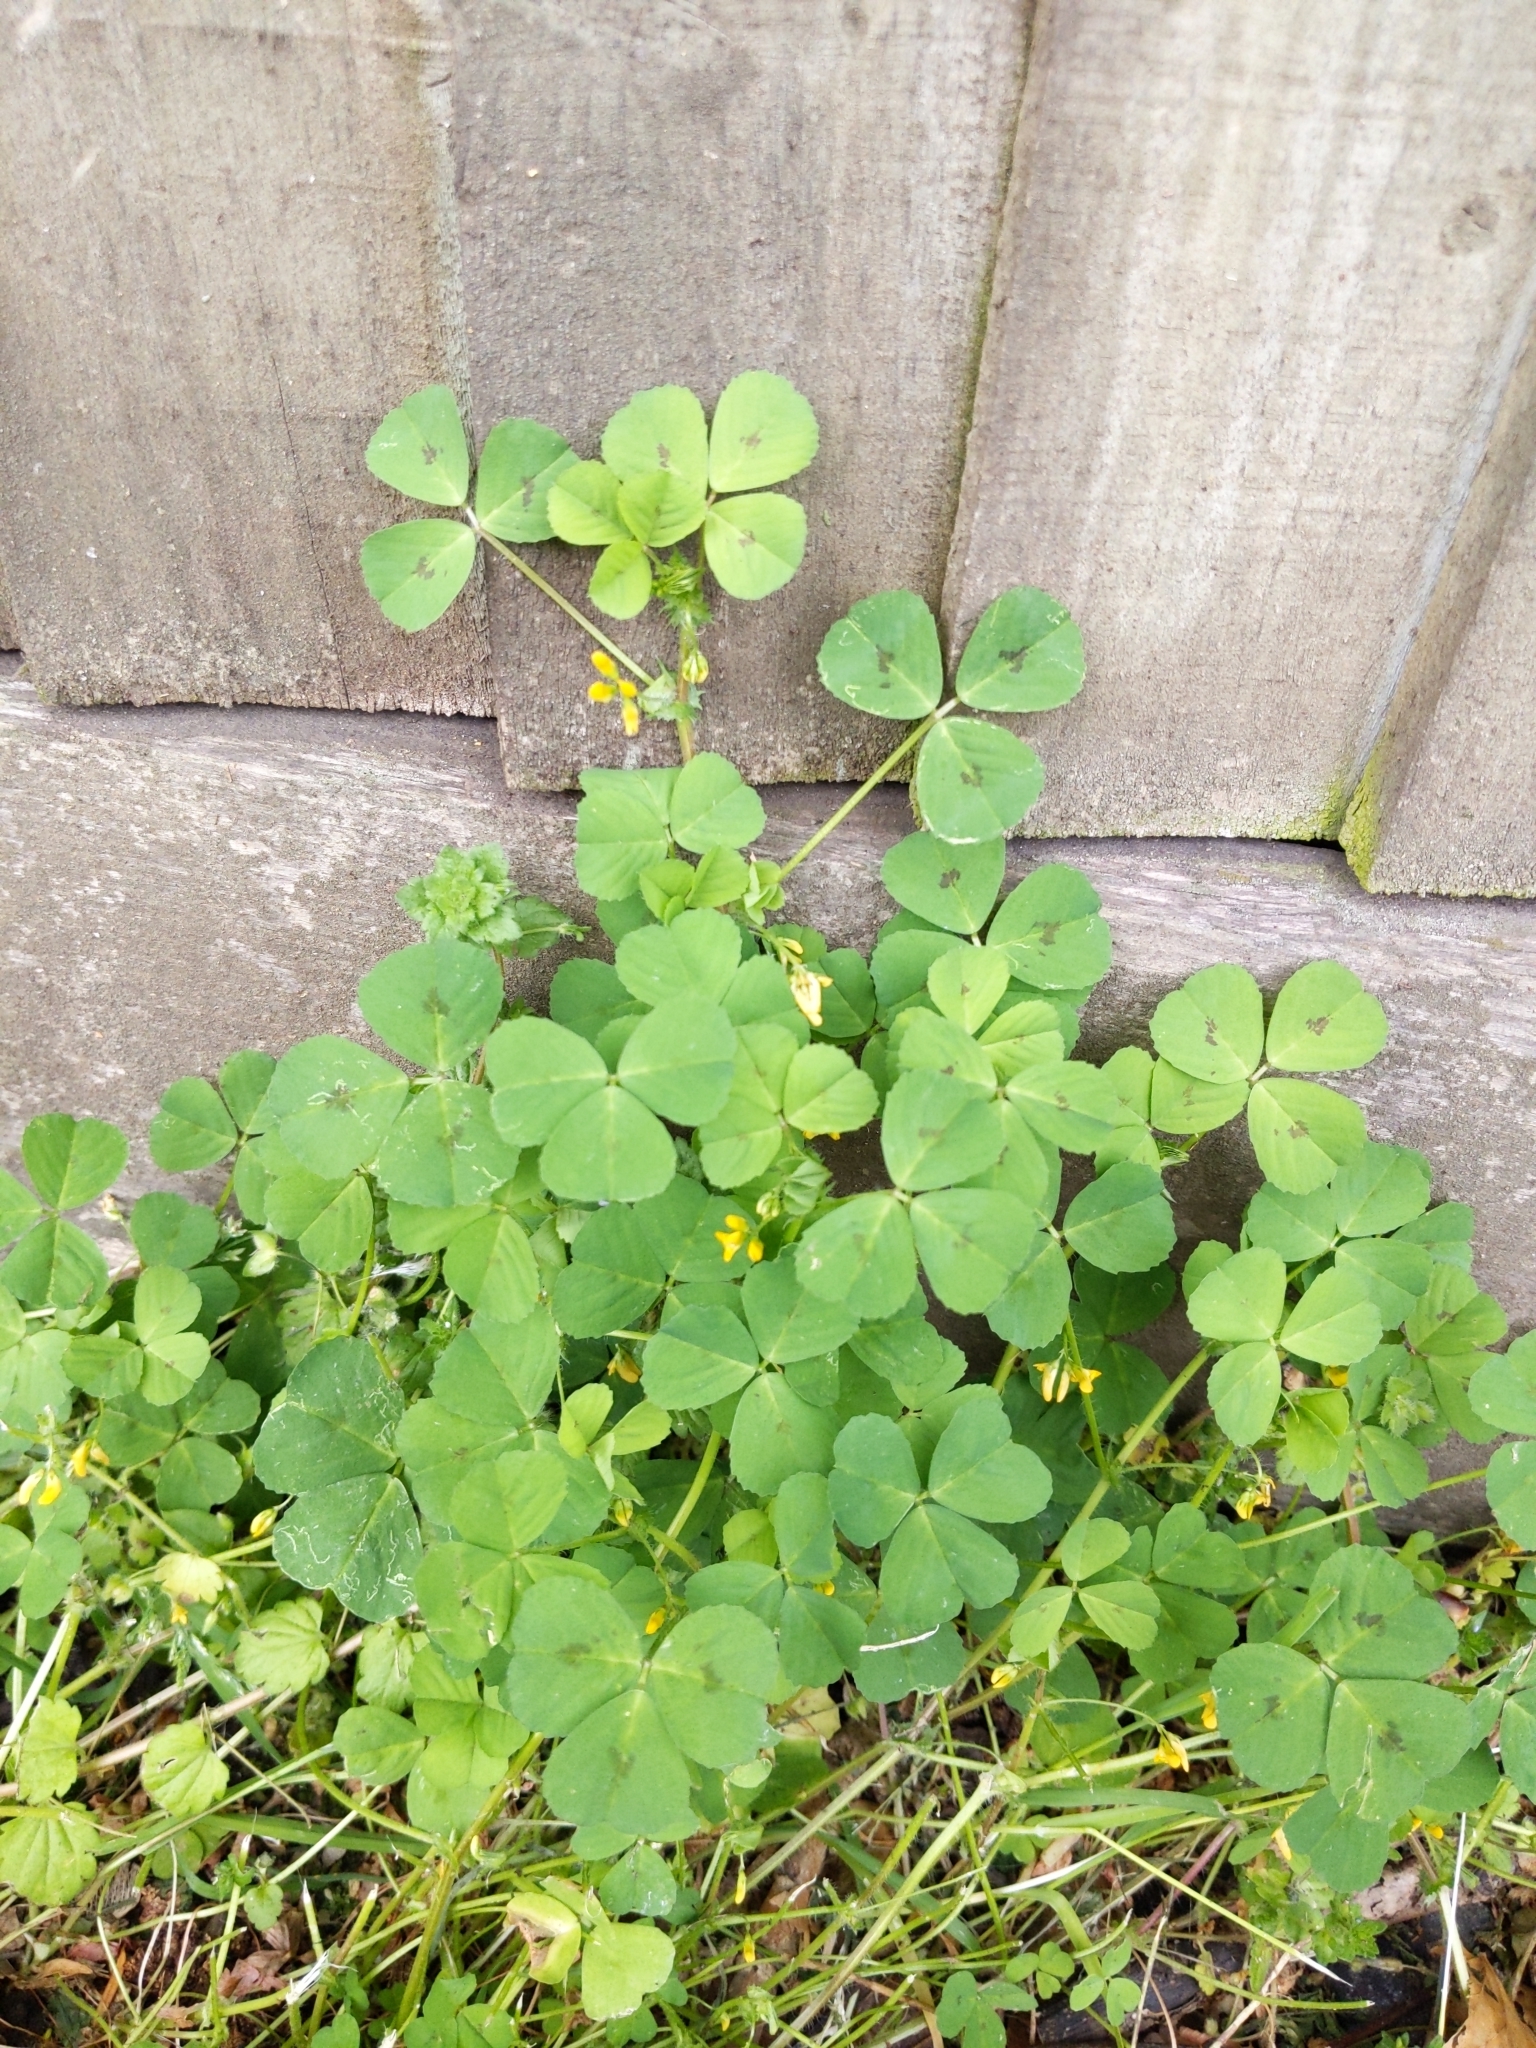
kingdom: Plantae
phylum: Tracheophyta
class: Magnoliopsida
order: Fabales
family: Fabaceae
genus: Medicago
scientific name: Medicago arabica
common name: Spotted medick
